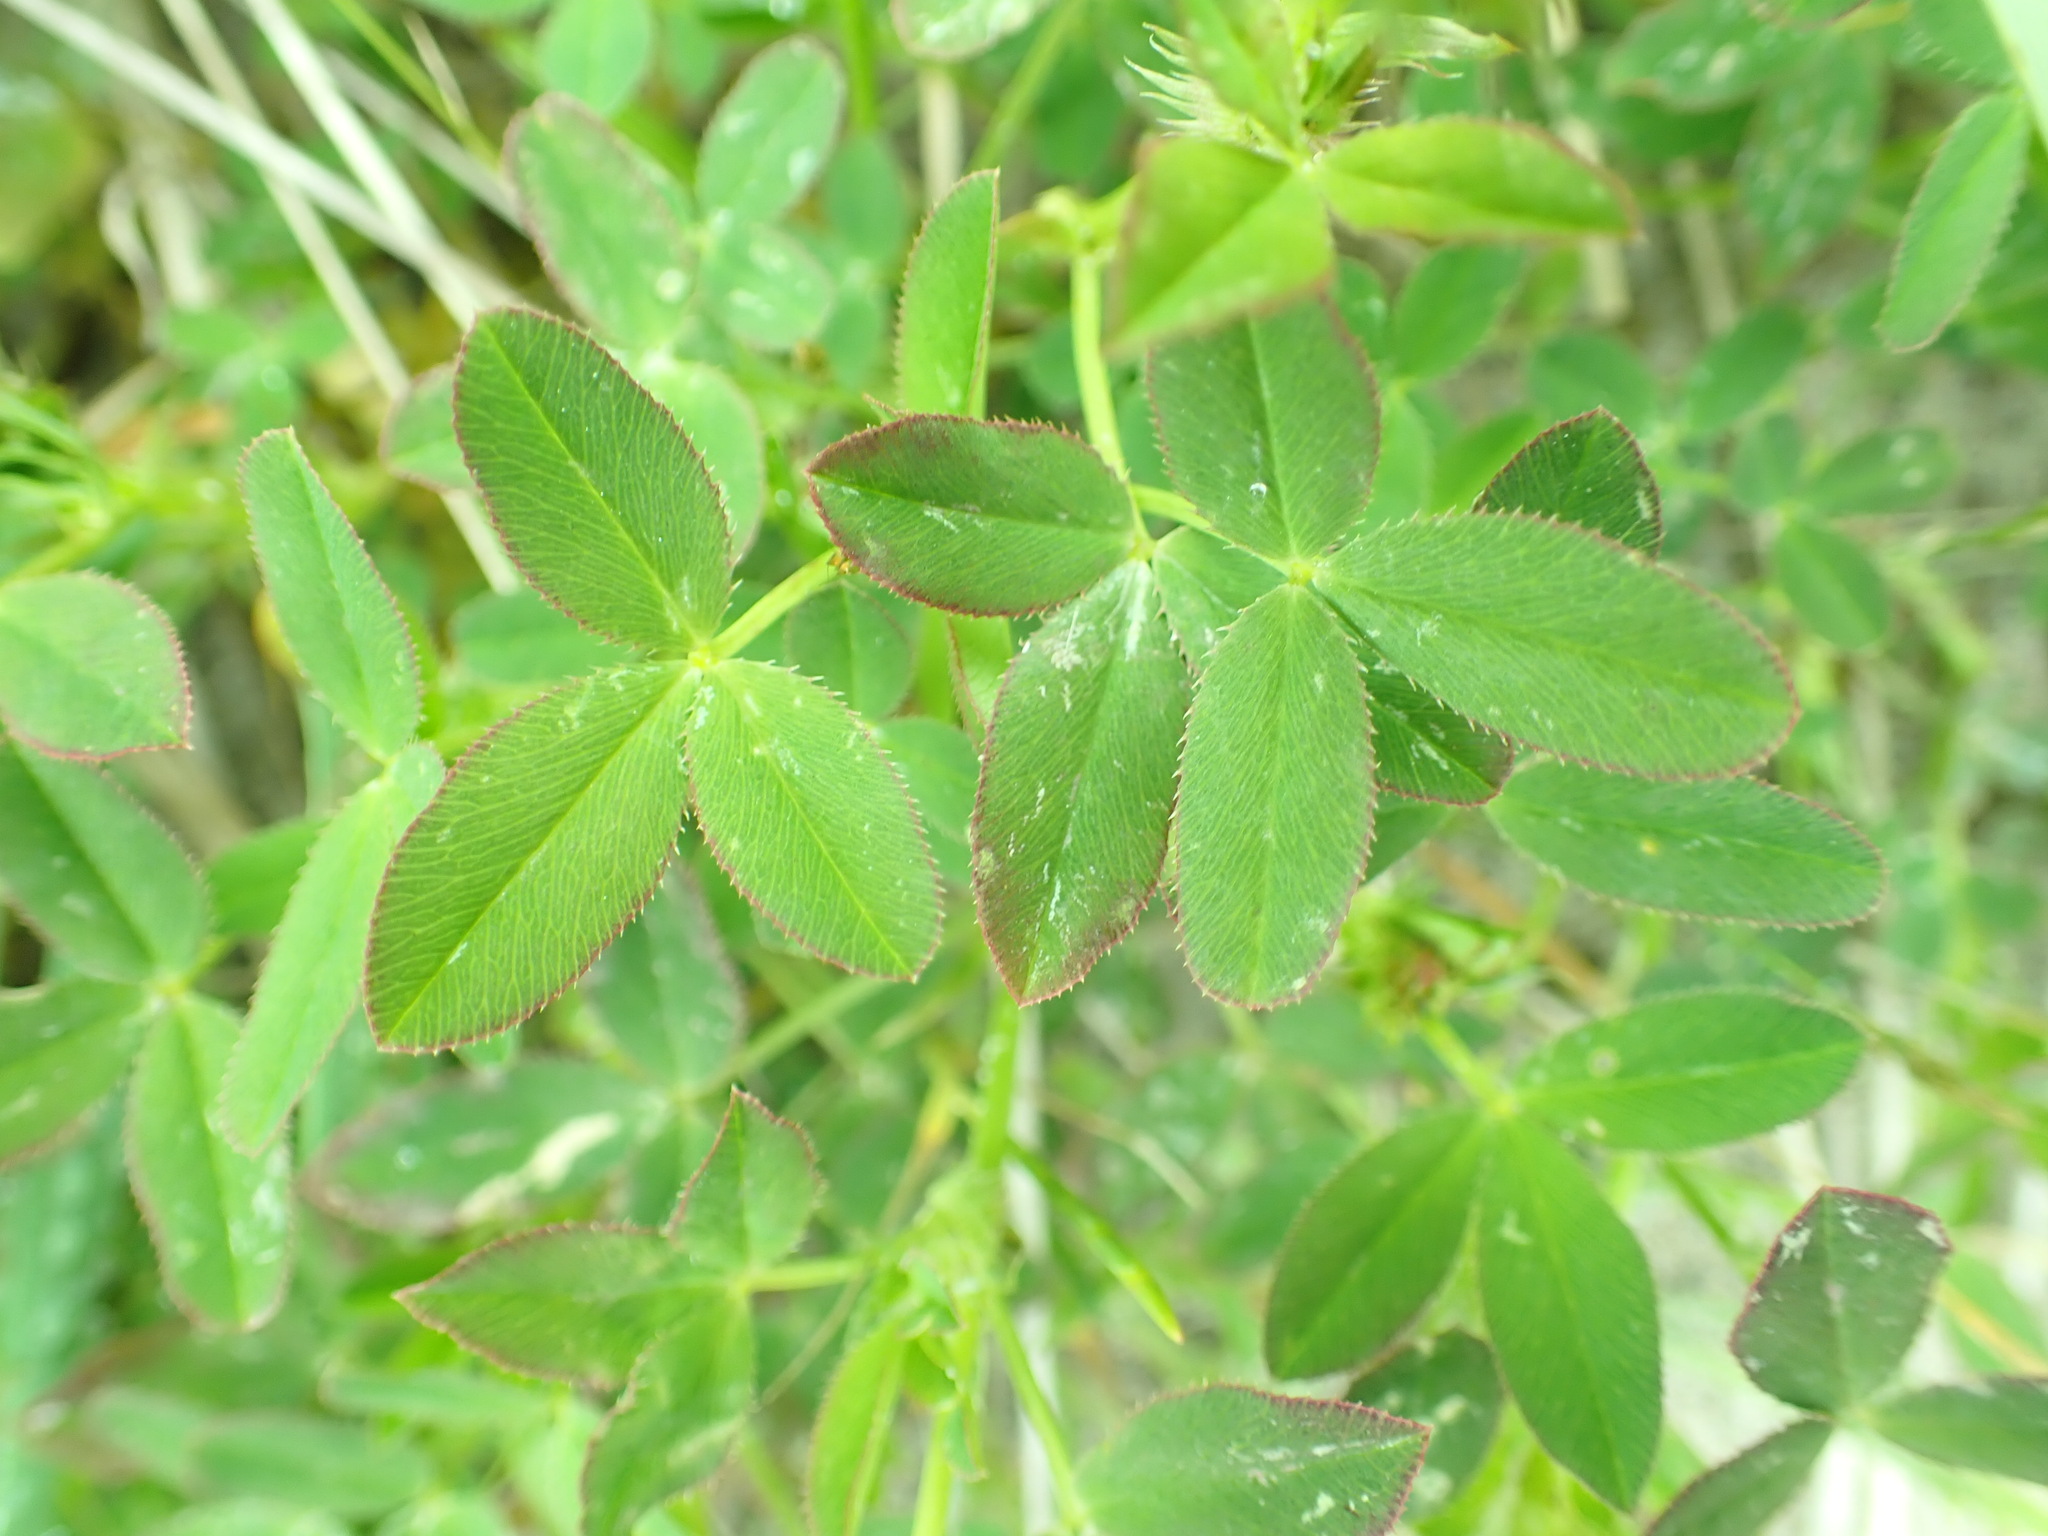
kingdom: Plantae
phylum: Tracheophyta
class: Magnoliopsida
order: Fabales
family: Fabaceae
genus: Trifolium
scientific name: Trifolium wormskioldii
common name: Springbank clover
